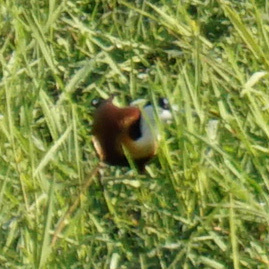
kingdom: Animalia
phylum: Chordata
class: Aves
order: Charadriiformes
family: Jacanidae
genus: Actophilornis
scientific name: Actophilornis africanus
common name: African jacana
